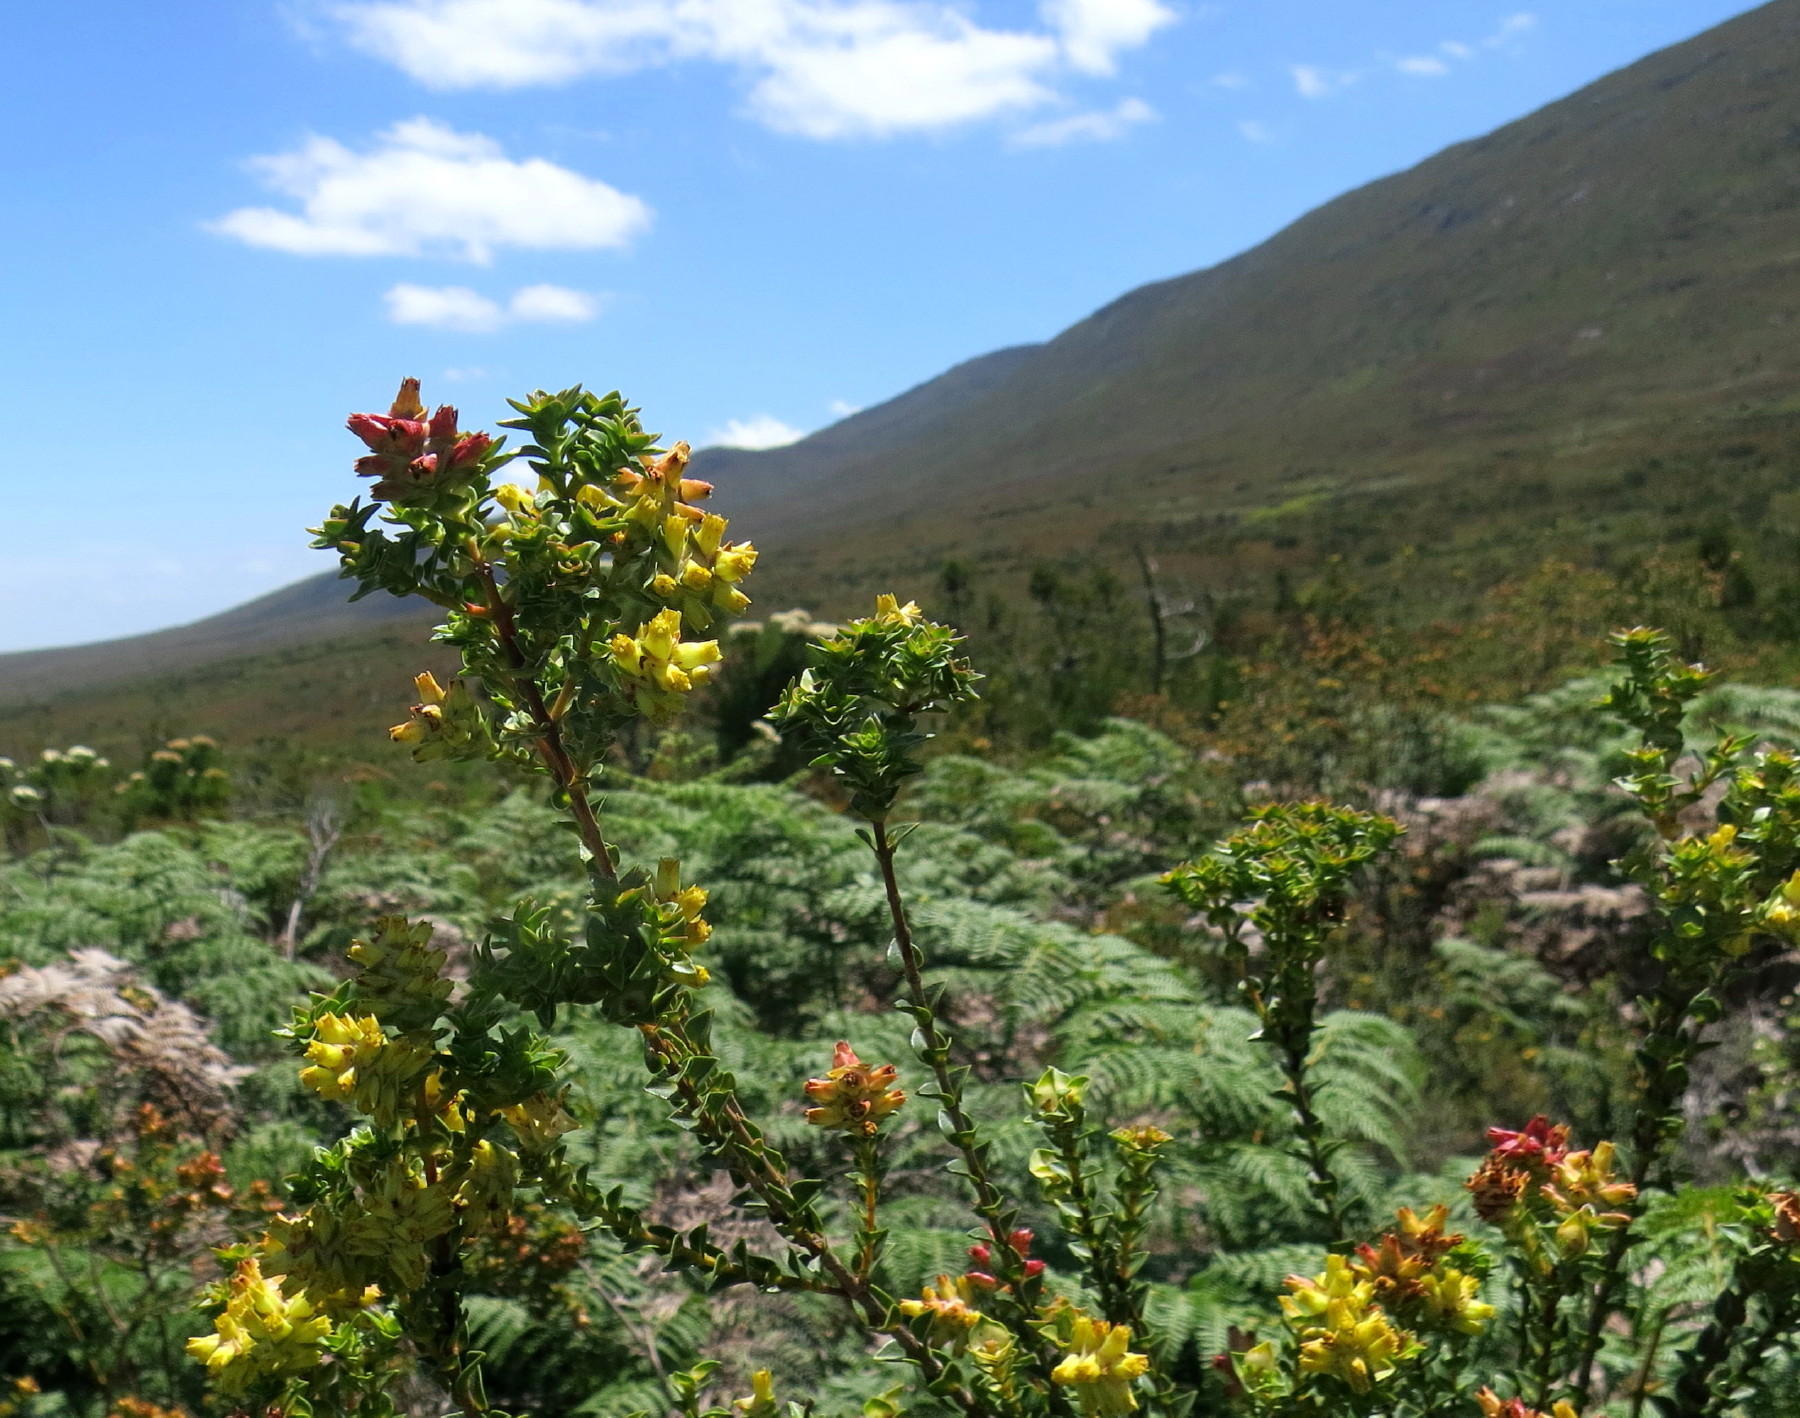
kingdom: Plantae
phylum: Tracheophyta
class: Magnoliopsida
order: Myrtales
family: Penaeaceae
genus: Penaea
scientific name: Penaea mucronata
